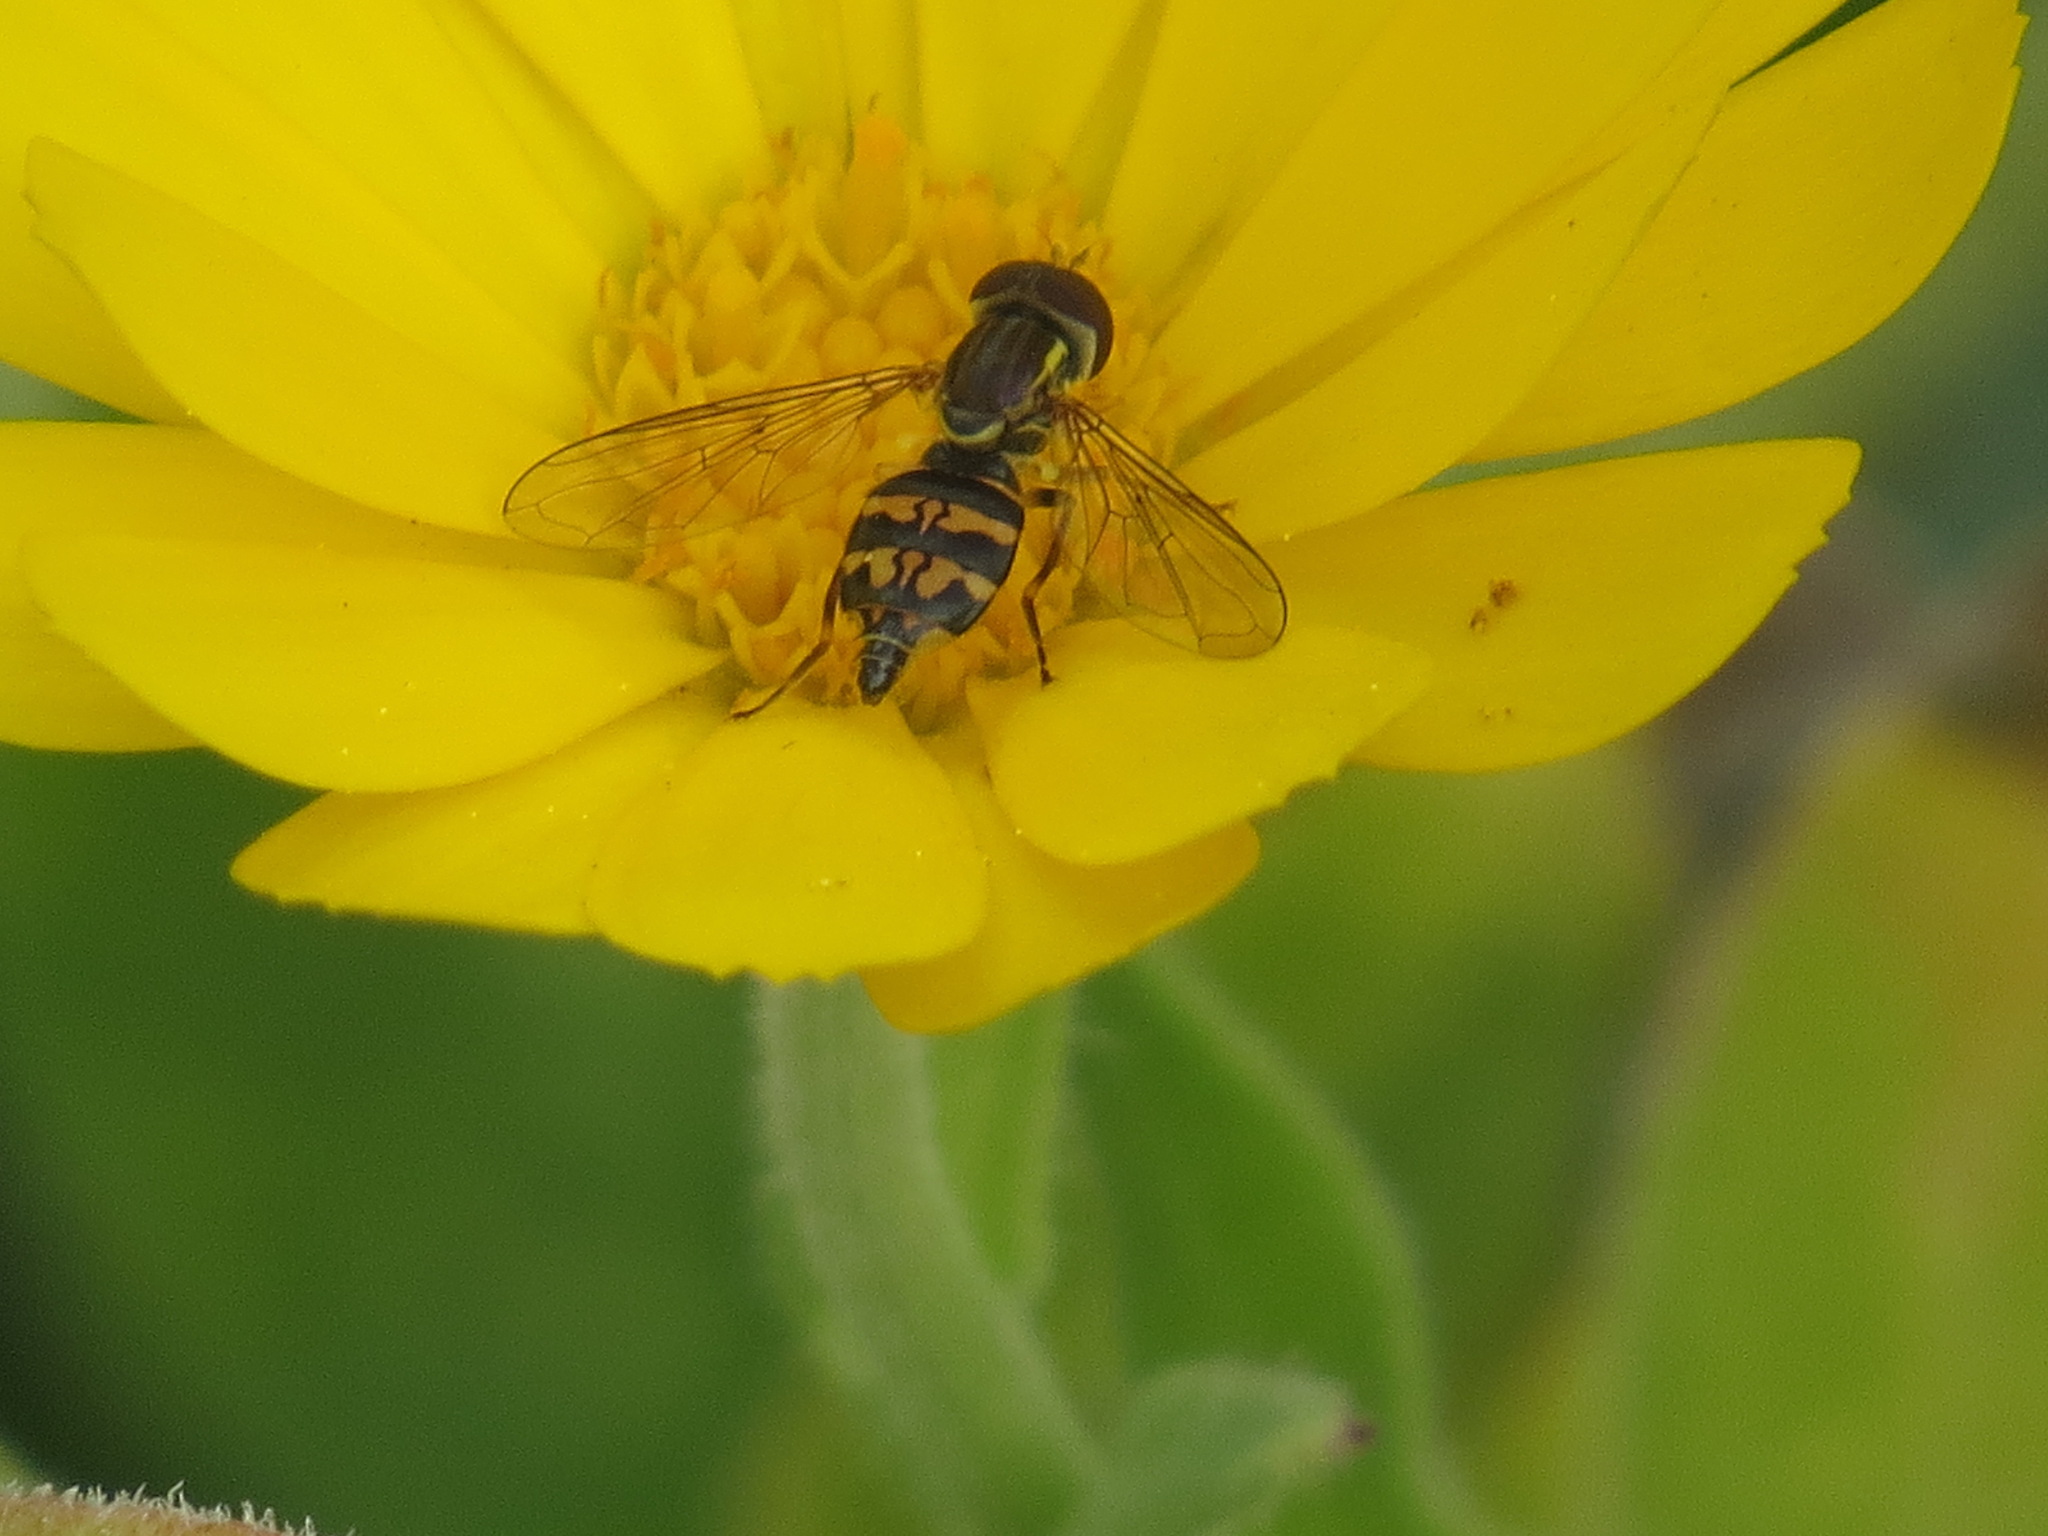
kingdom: Animalia
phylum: Arthropoda
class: Insecta
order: Diptera
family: Syrphidae
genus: Toxomerus
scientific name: Toxomerus occidentalis
